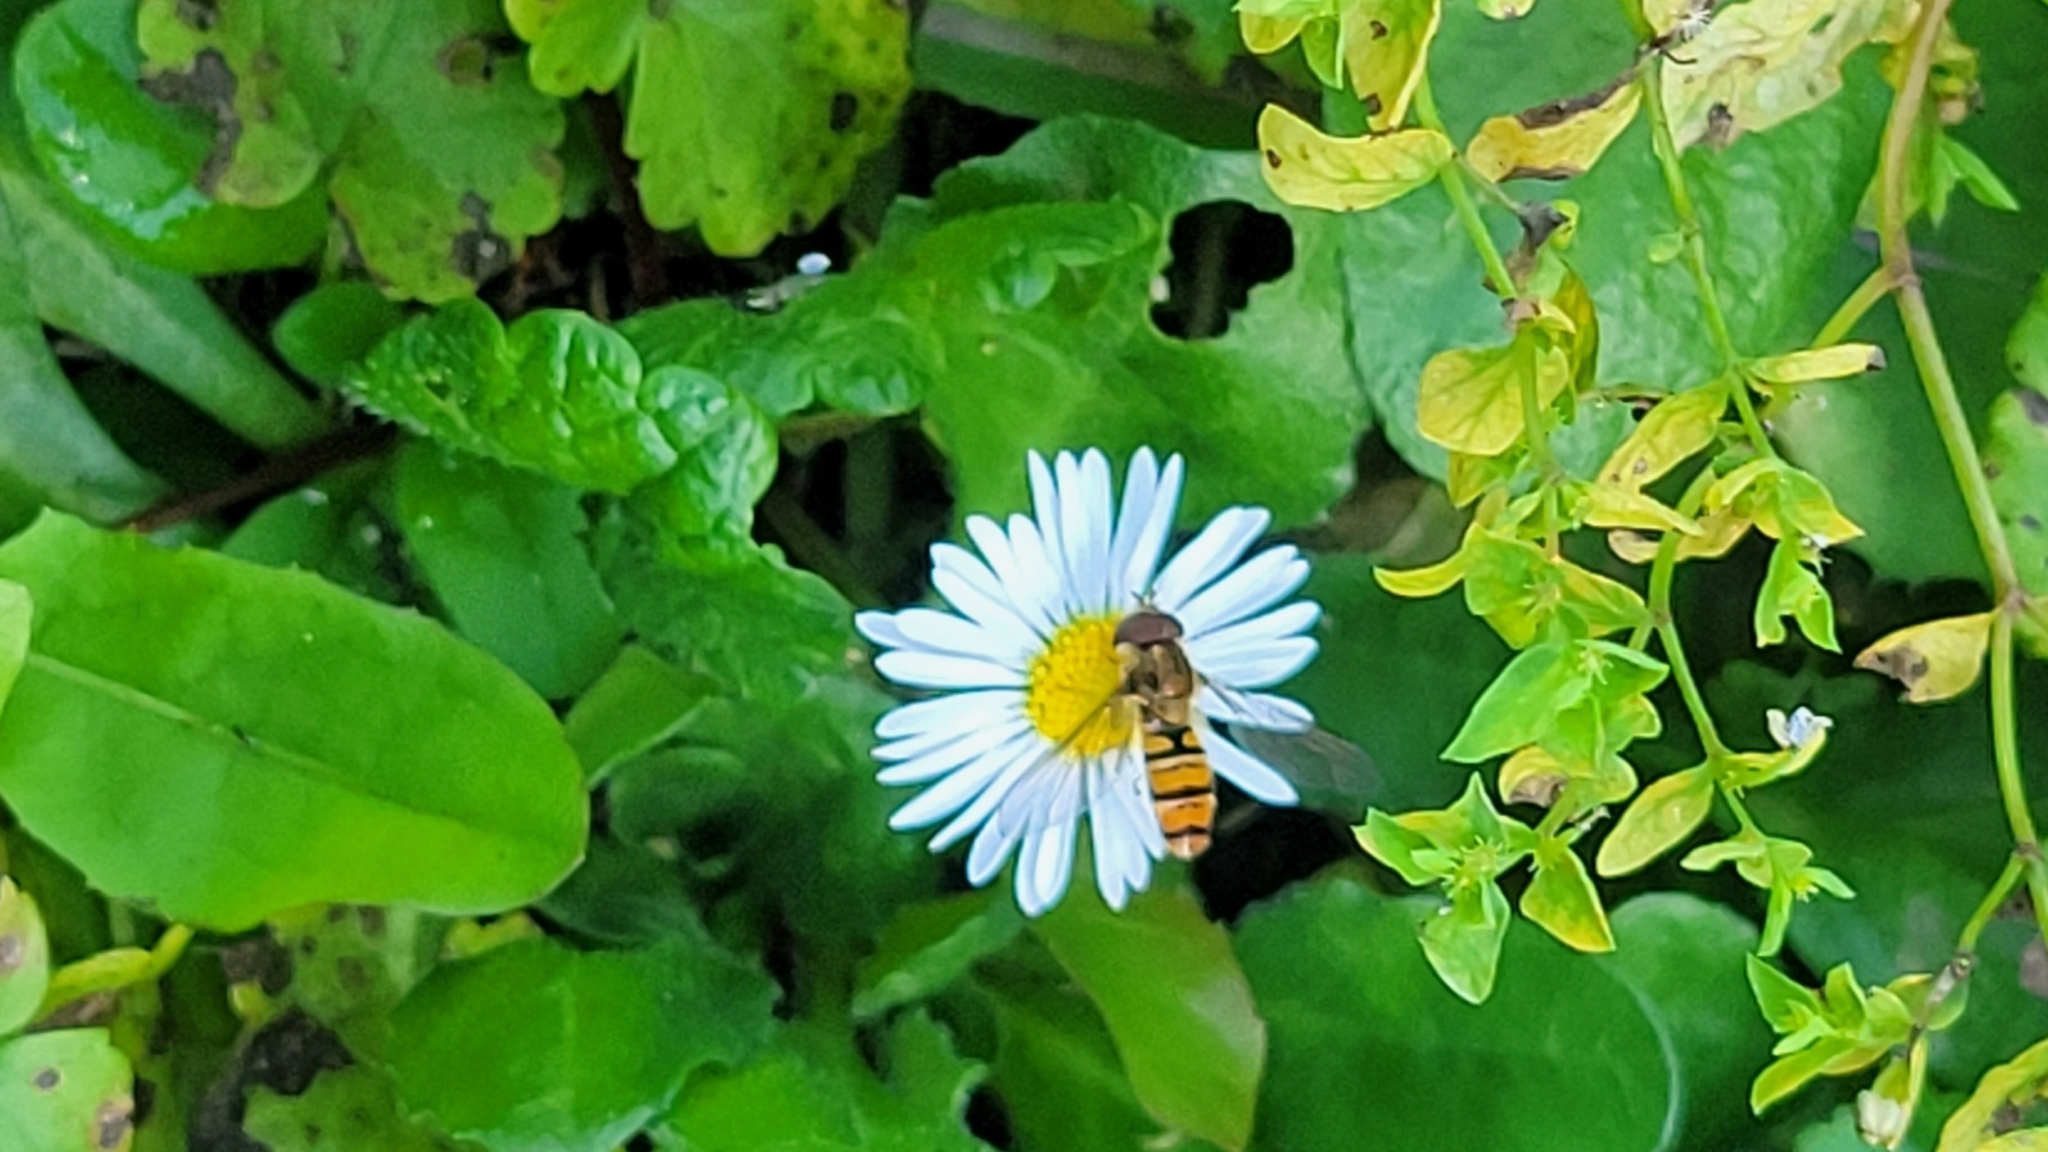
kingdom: Animalia
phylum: Arthropoda
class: Insecta
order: Diptera
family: Syrphidae
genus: Episyrphus
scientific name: Episyrphus balteatus
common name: Marmalade hoverfly
